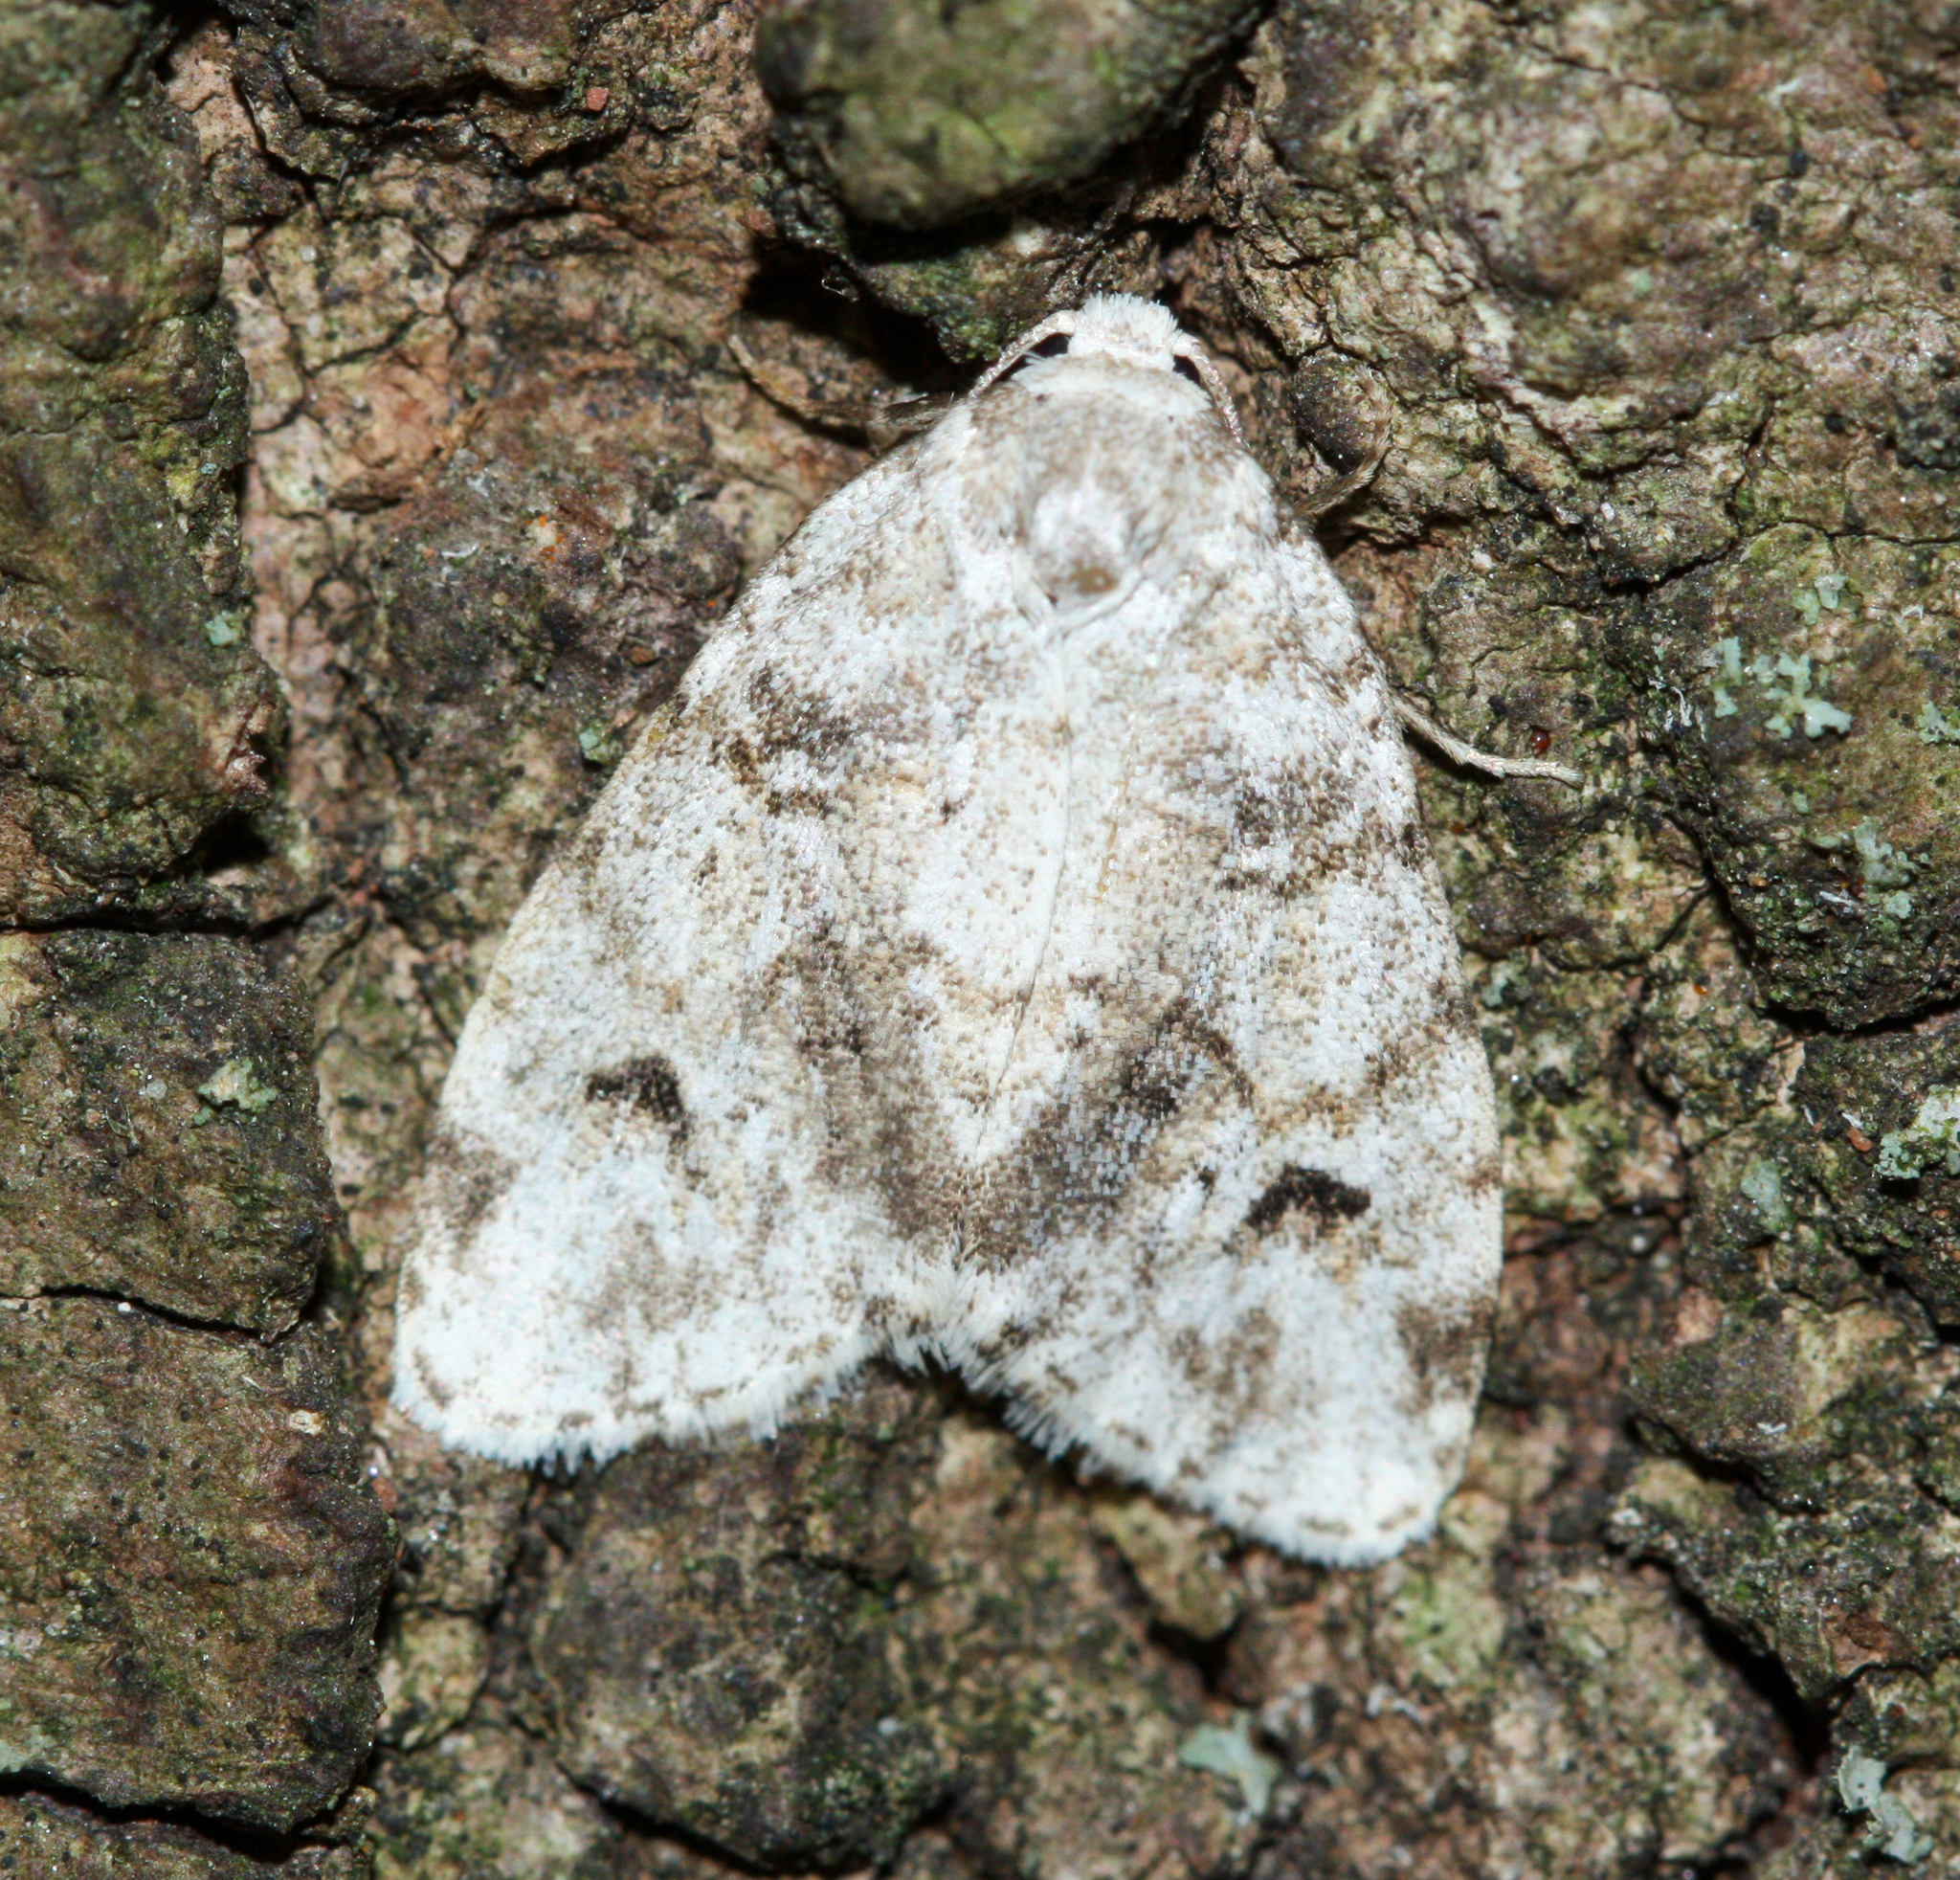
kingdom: Animalia
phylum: Arthropoda
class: Insecta
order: Lepidoptera
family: Erebidae
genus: Clemensia
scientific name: Clemensia albata
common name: Little white lichen moth
